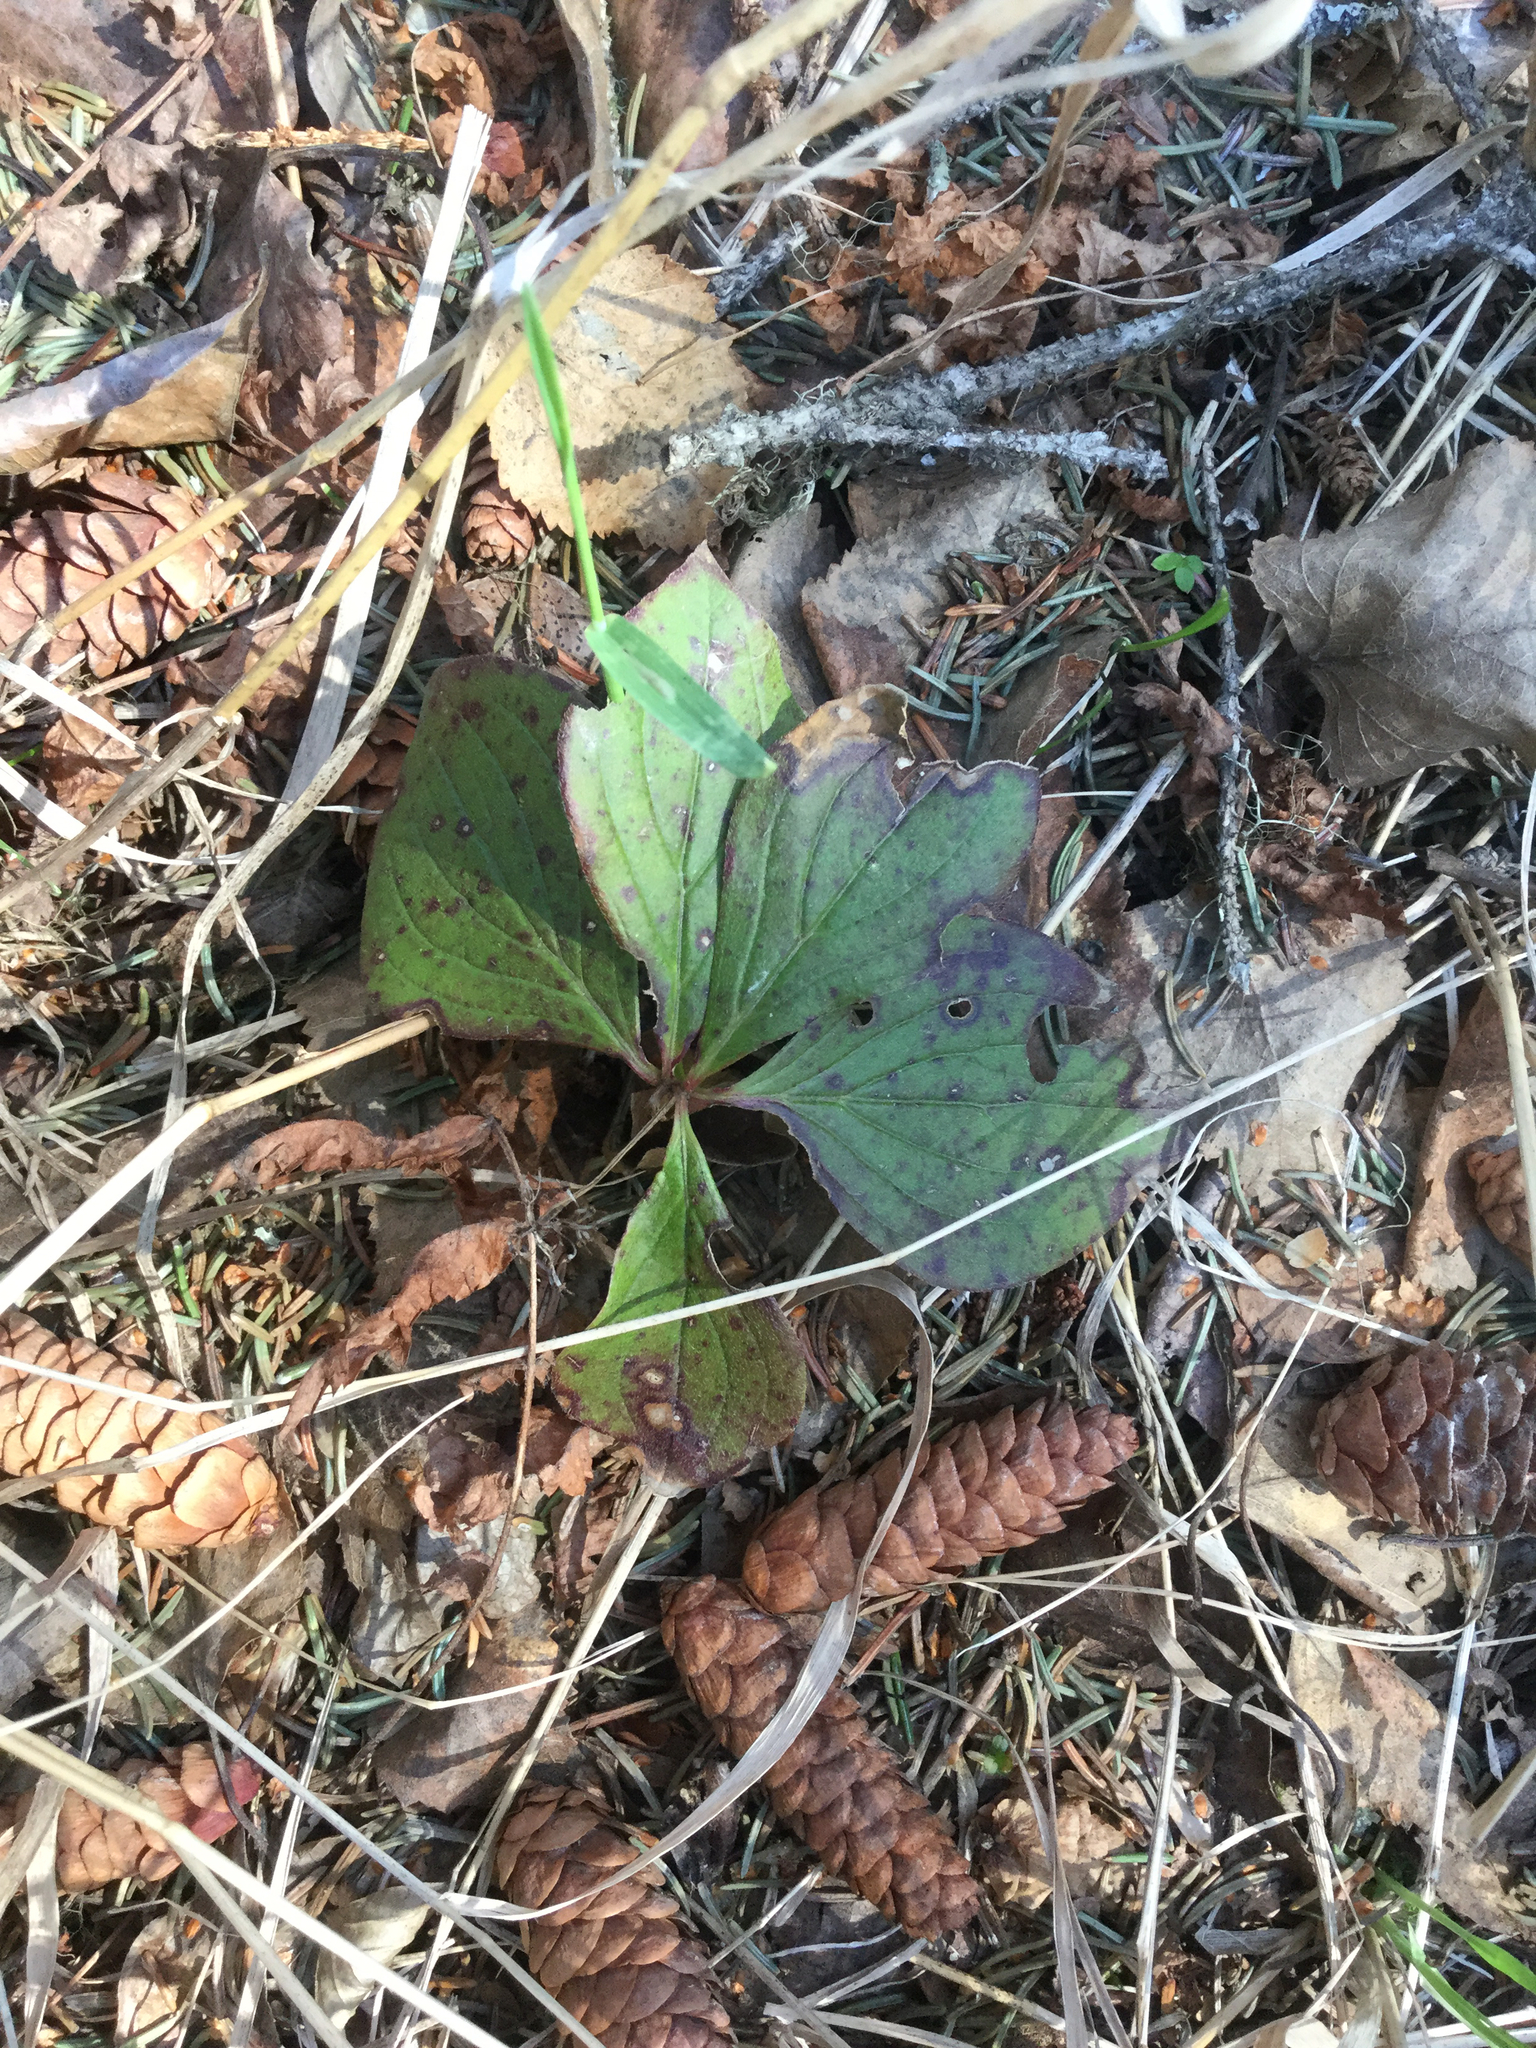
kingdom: Plantae
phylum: Tracheophyta
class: Magnoliopsida
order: Cornales
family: Cornaceae
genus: Cornus
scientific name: Cornus canadensis
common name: Creeping dogwood
